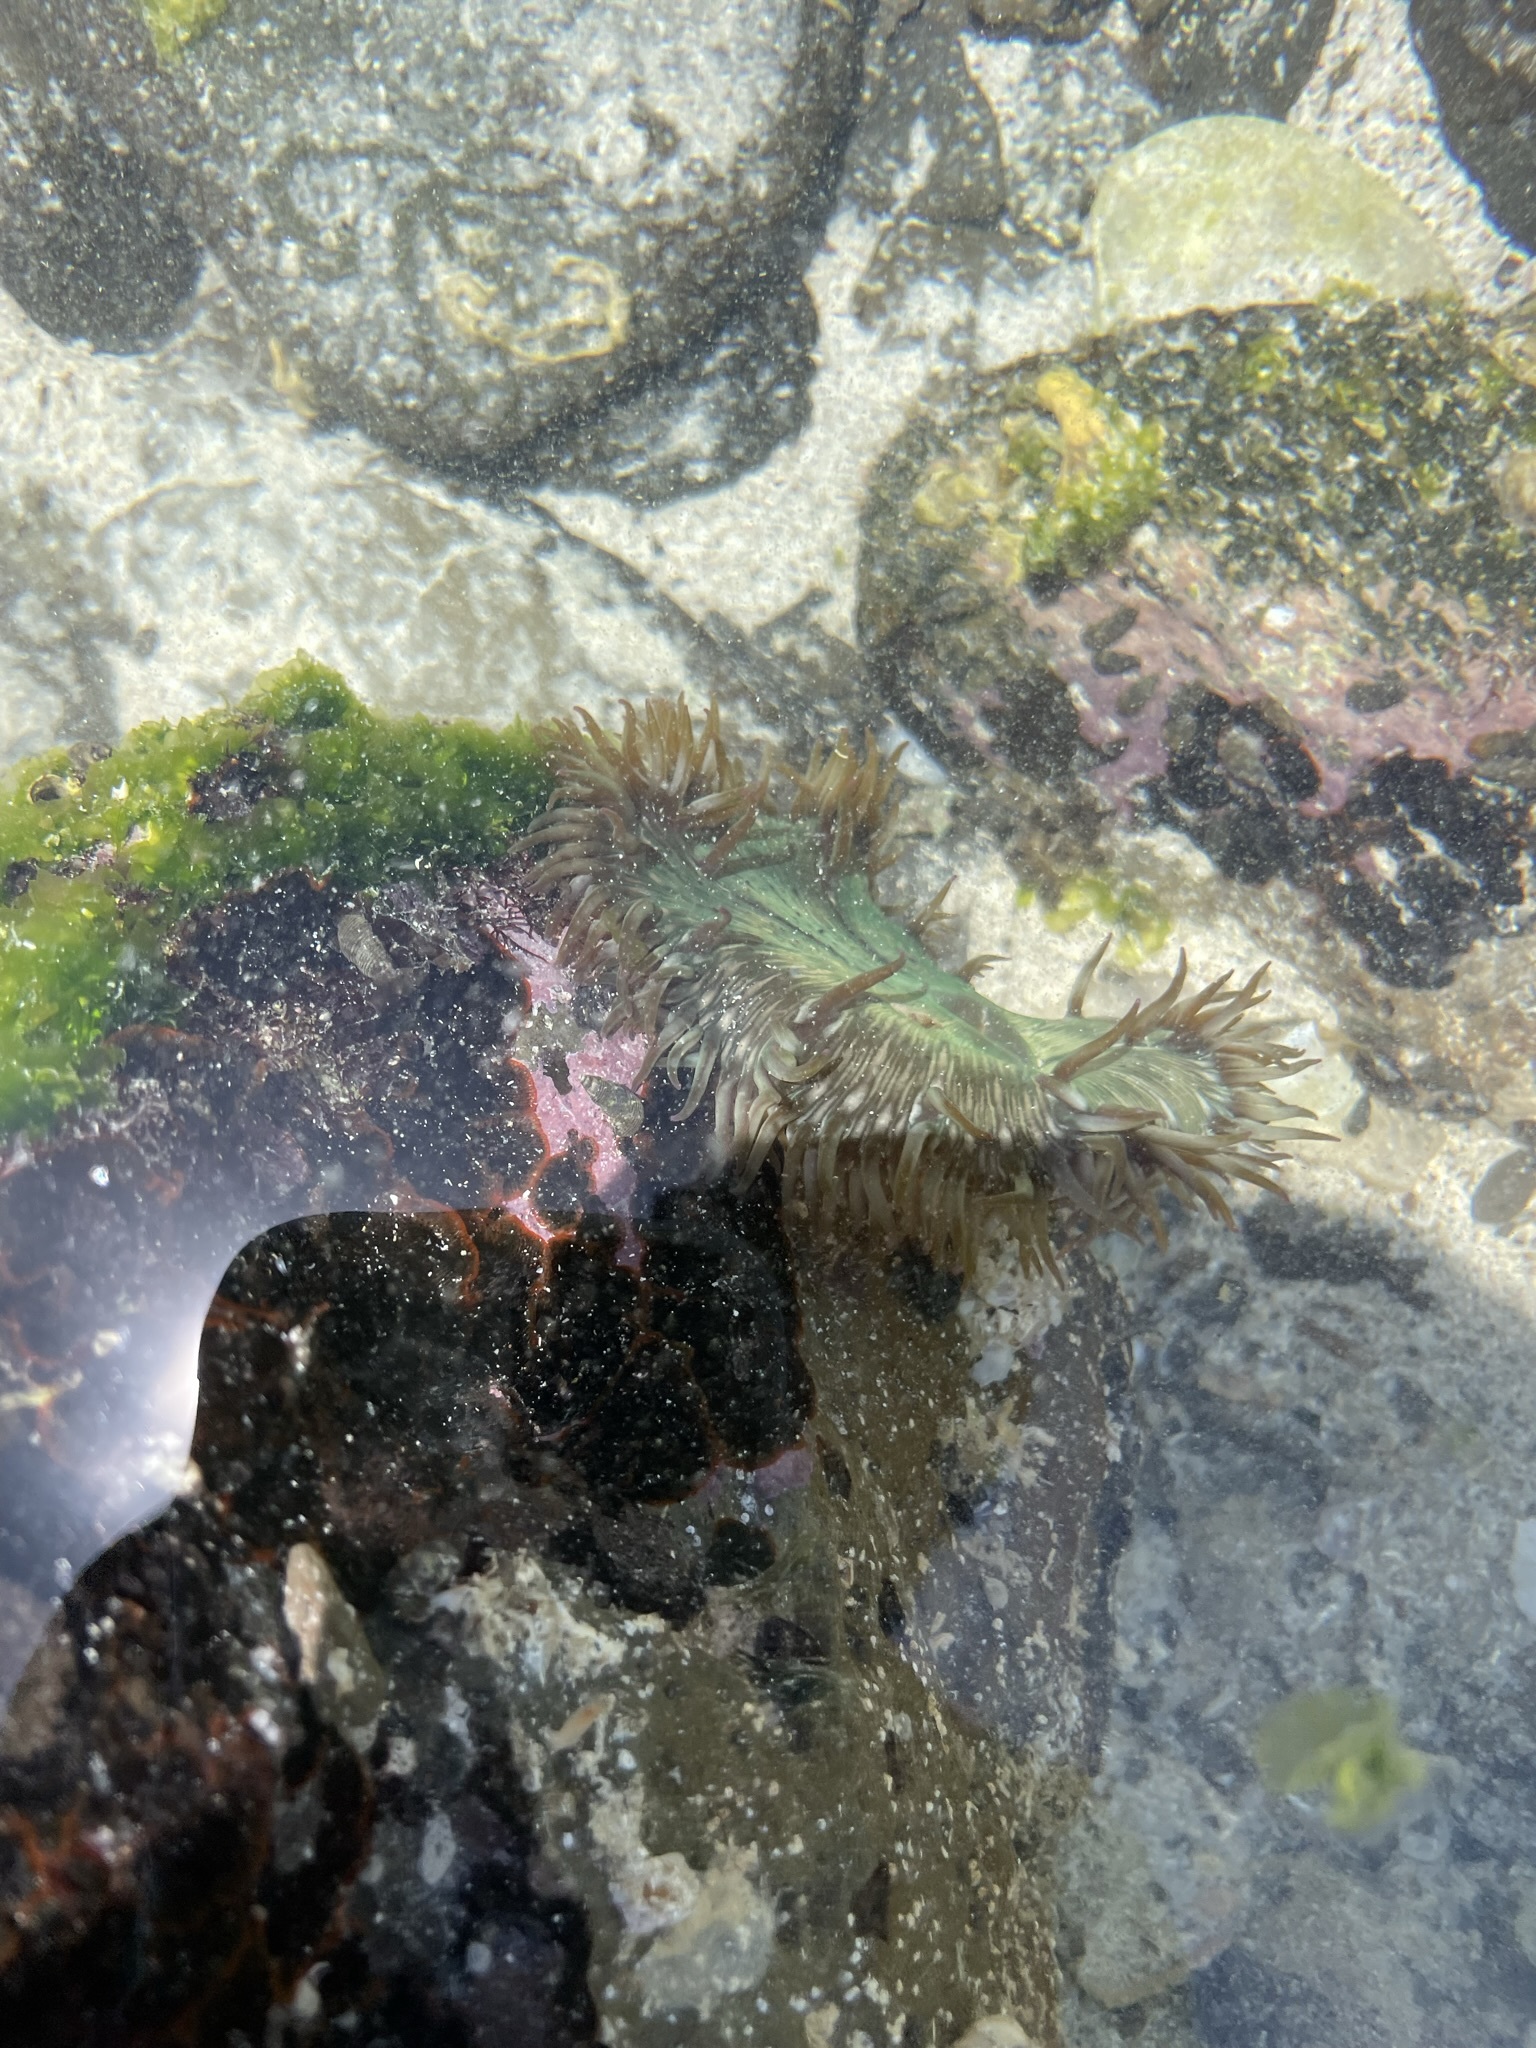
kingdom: Animalia
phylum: Cnidaria
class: Anthozoa
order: Actiniaria
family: Actiniidae
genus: Phialoba
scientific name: Phialoba steinbecki
